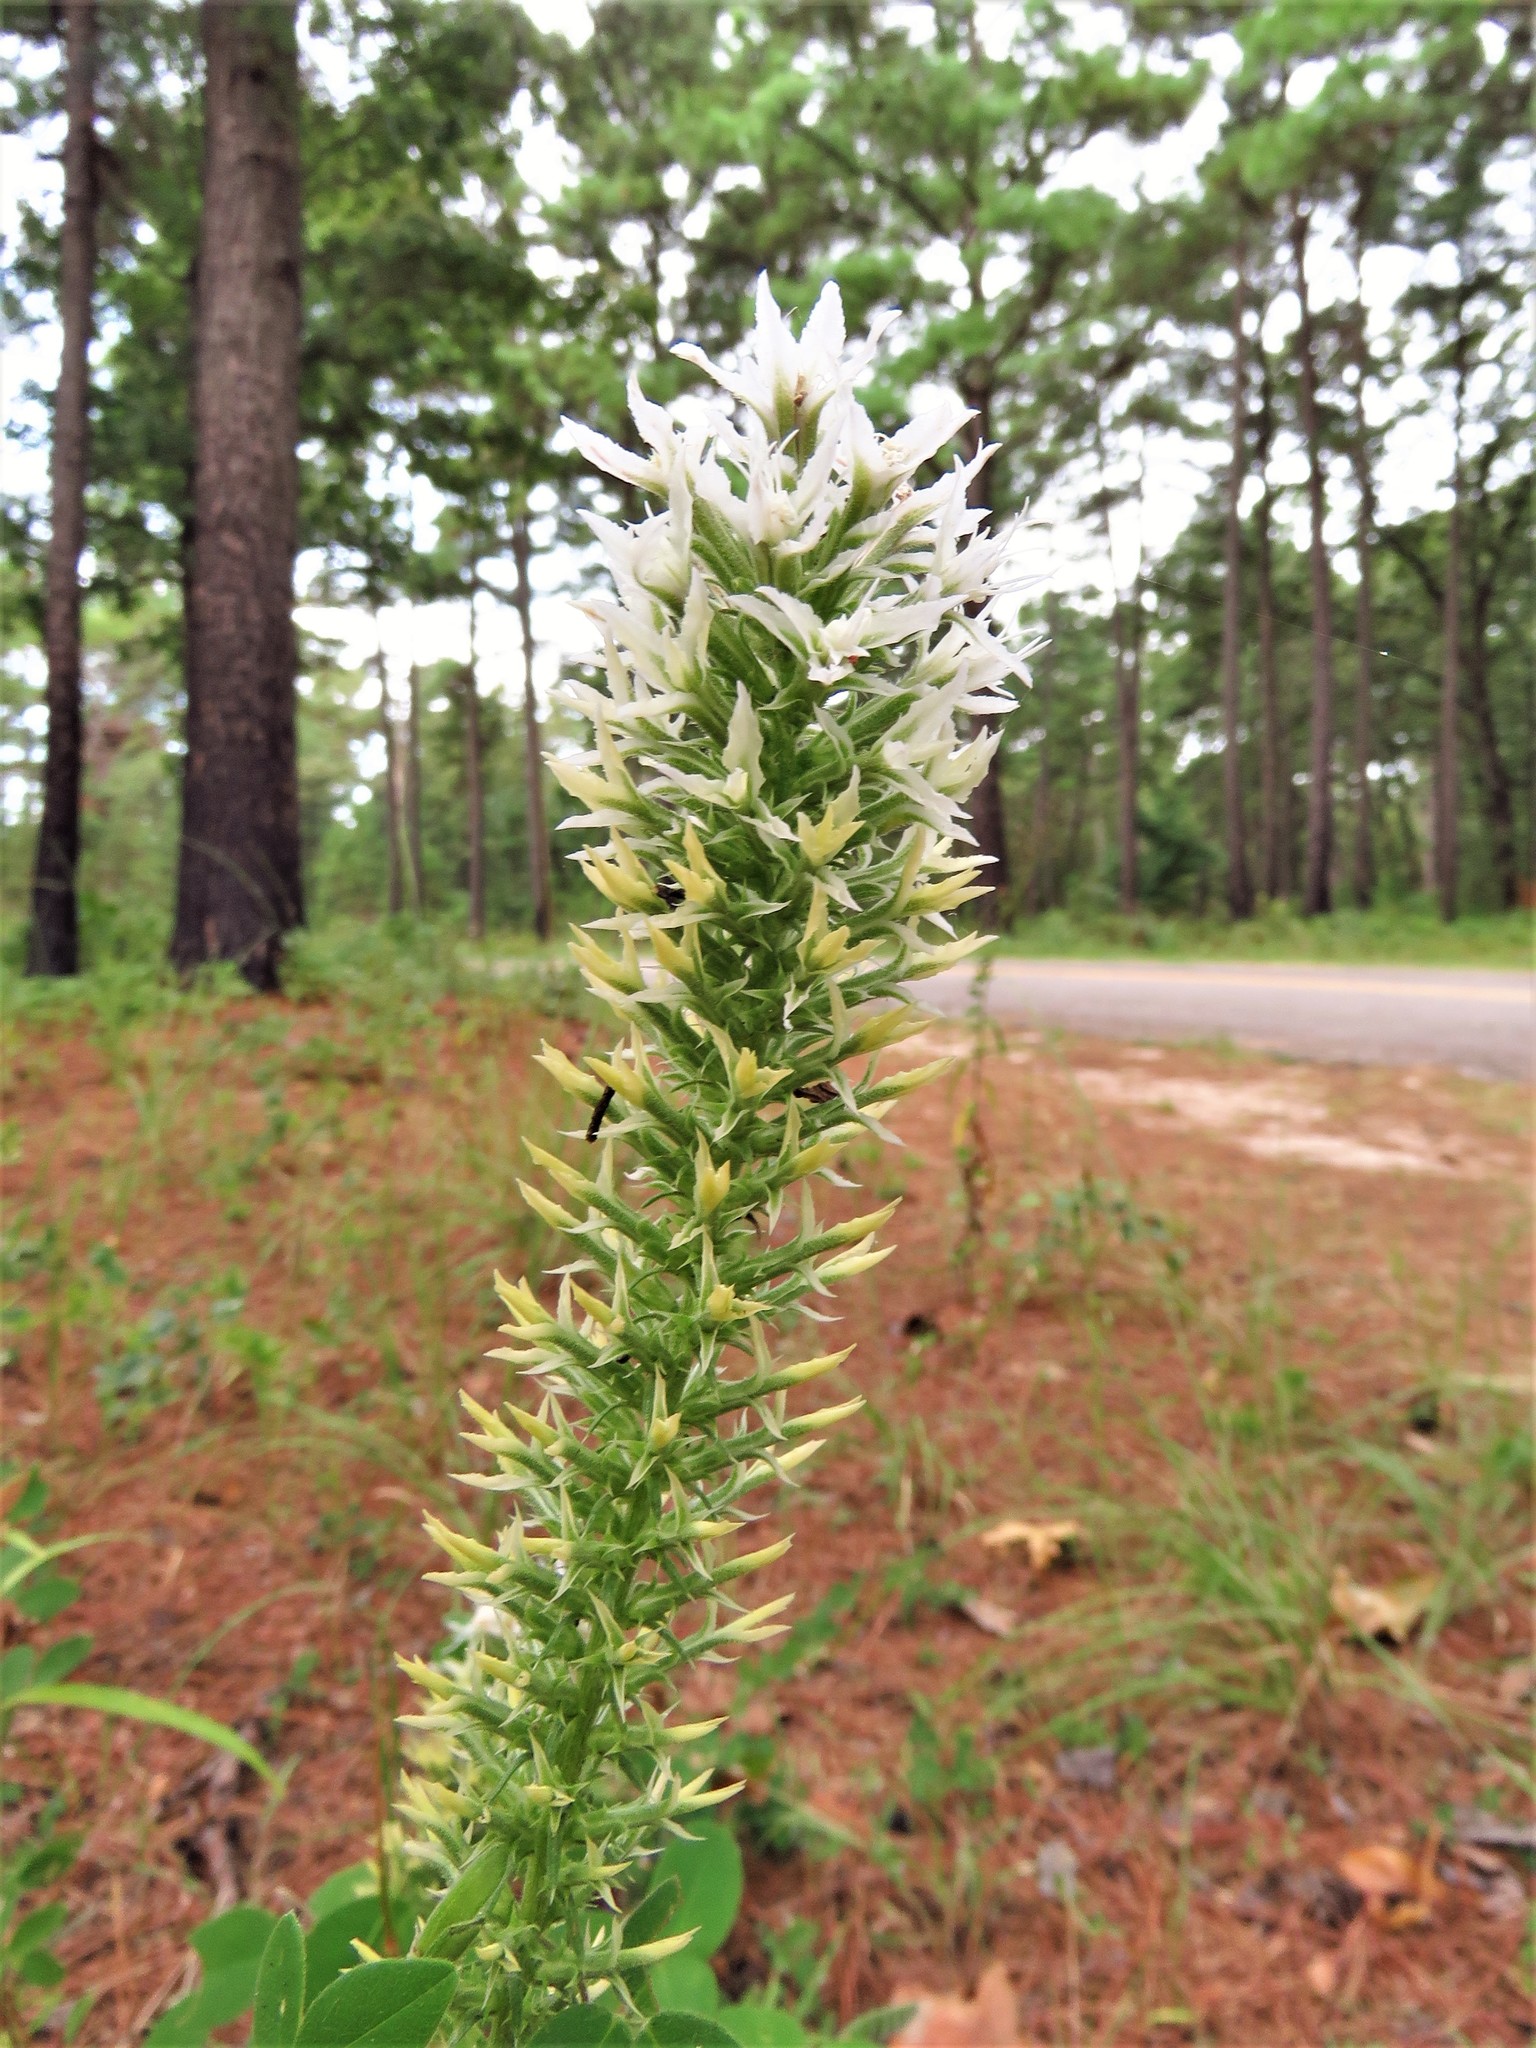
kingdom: Plantae
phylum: Tracheophyta
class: Magnoliopsida
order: Asterales
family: Asteraceae
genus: Liatris
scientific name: Liatris bridgesii
